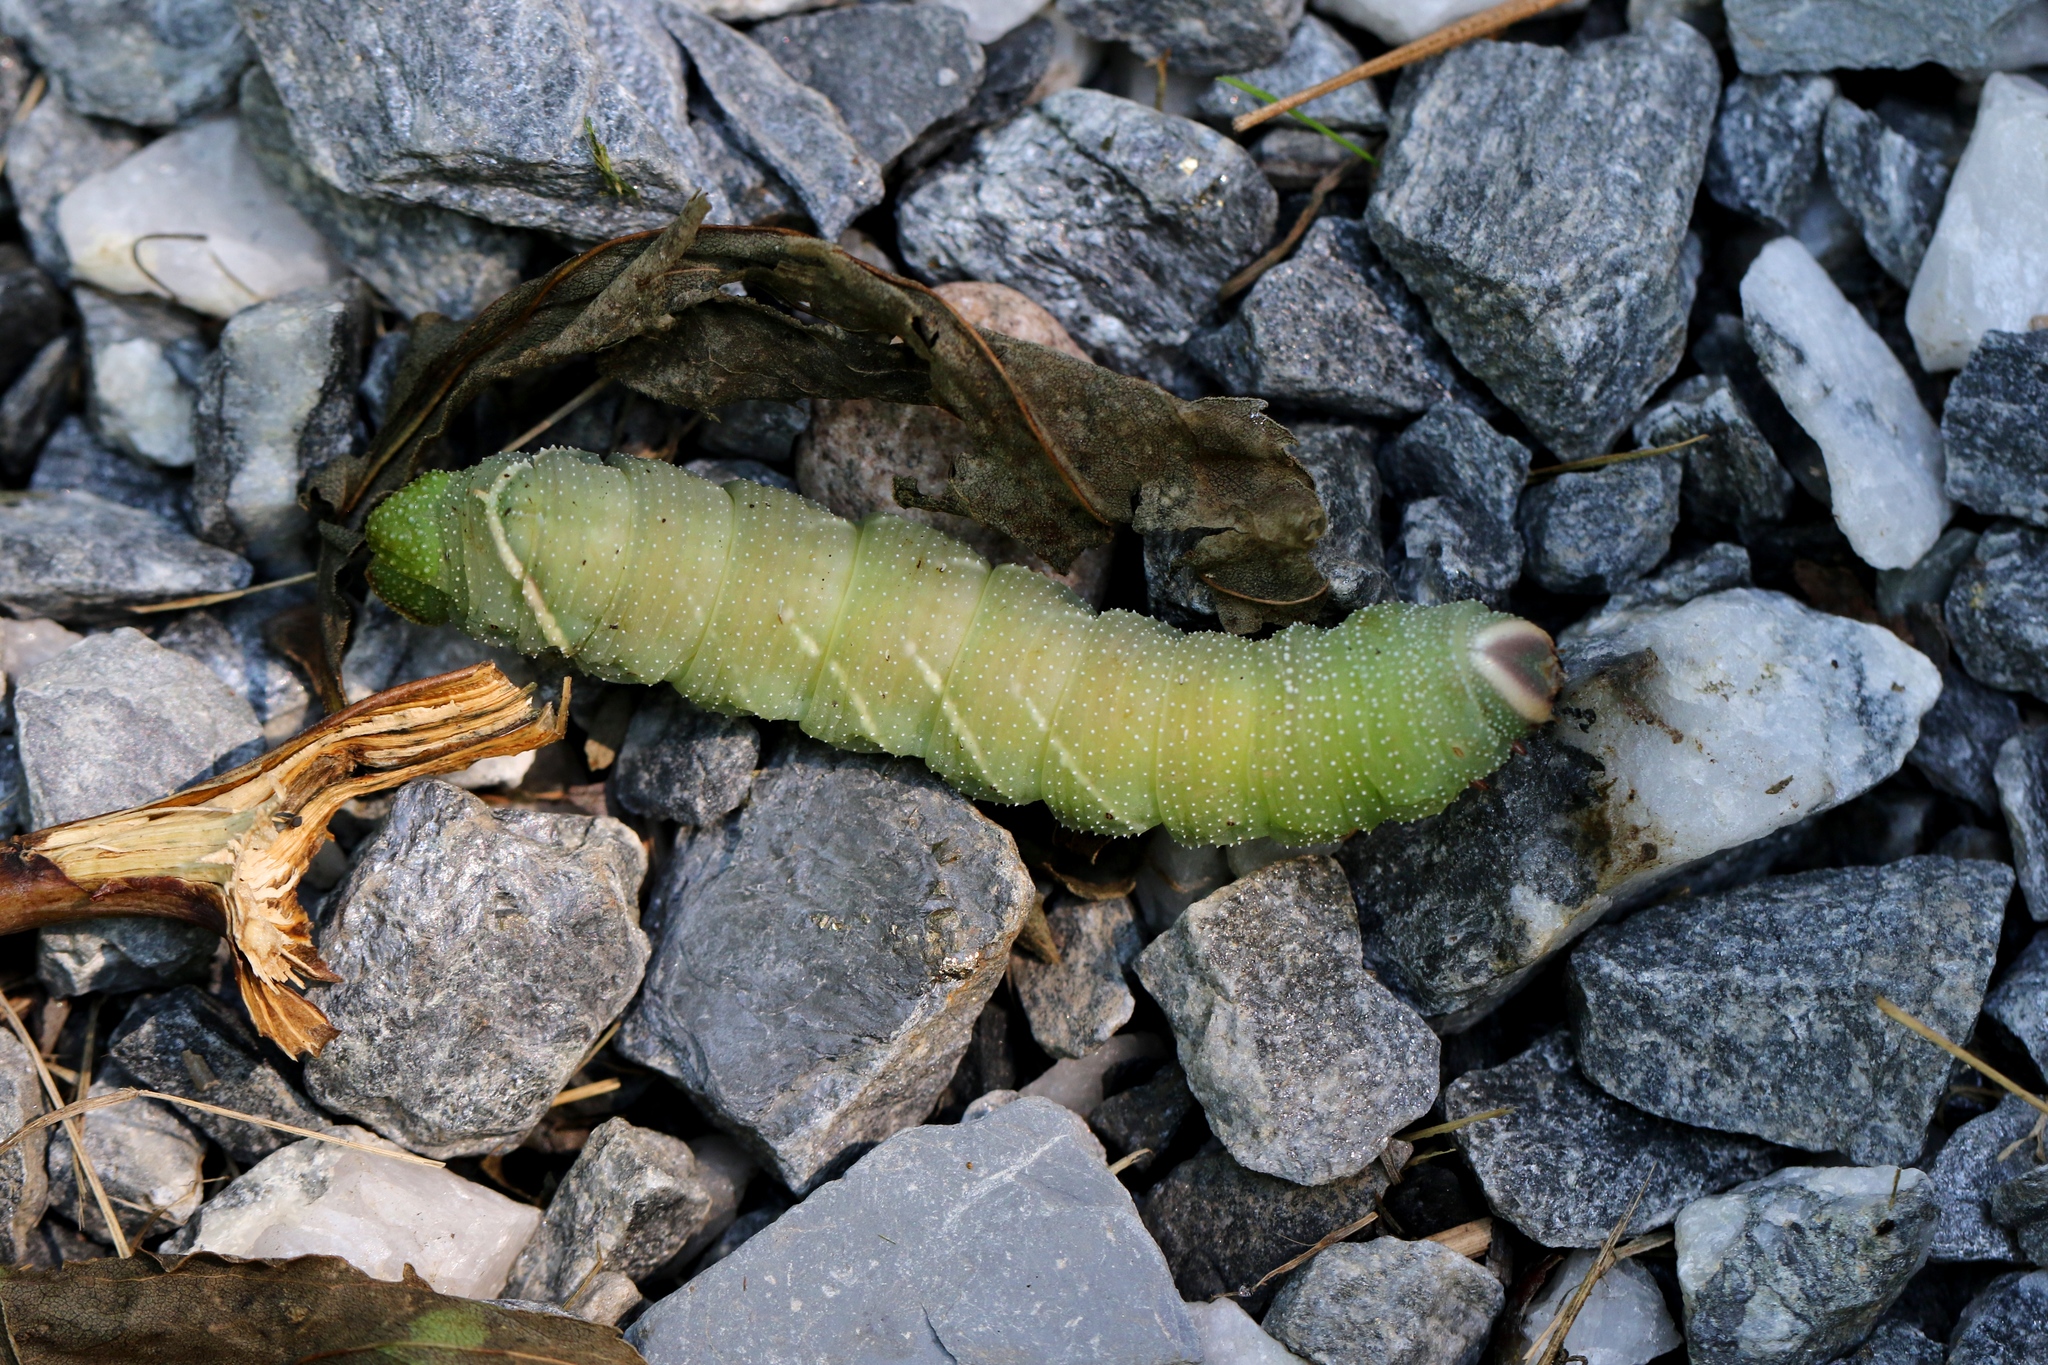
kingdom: Animalia
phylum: Arthropoda
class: Insecta
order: Lepidoptera
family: Sphingidae
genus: Pachysphinx
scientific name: Pachysphinx modesta
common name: Big poplar sphinx
